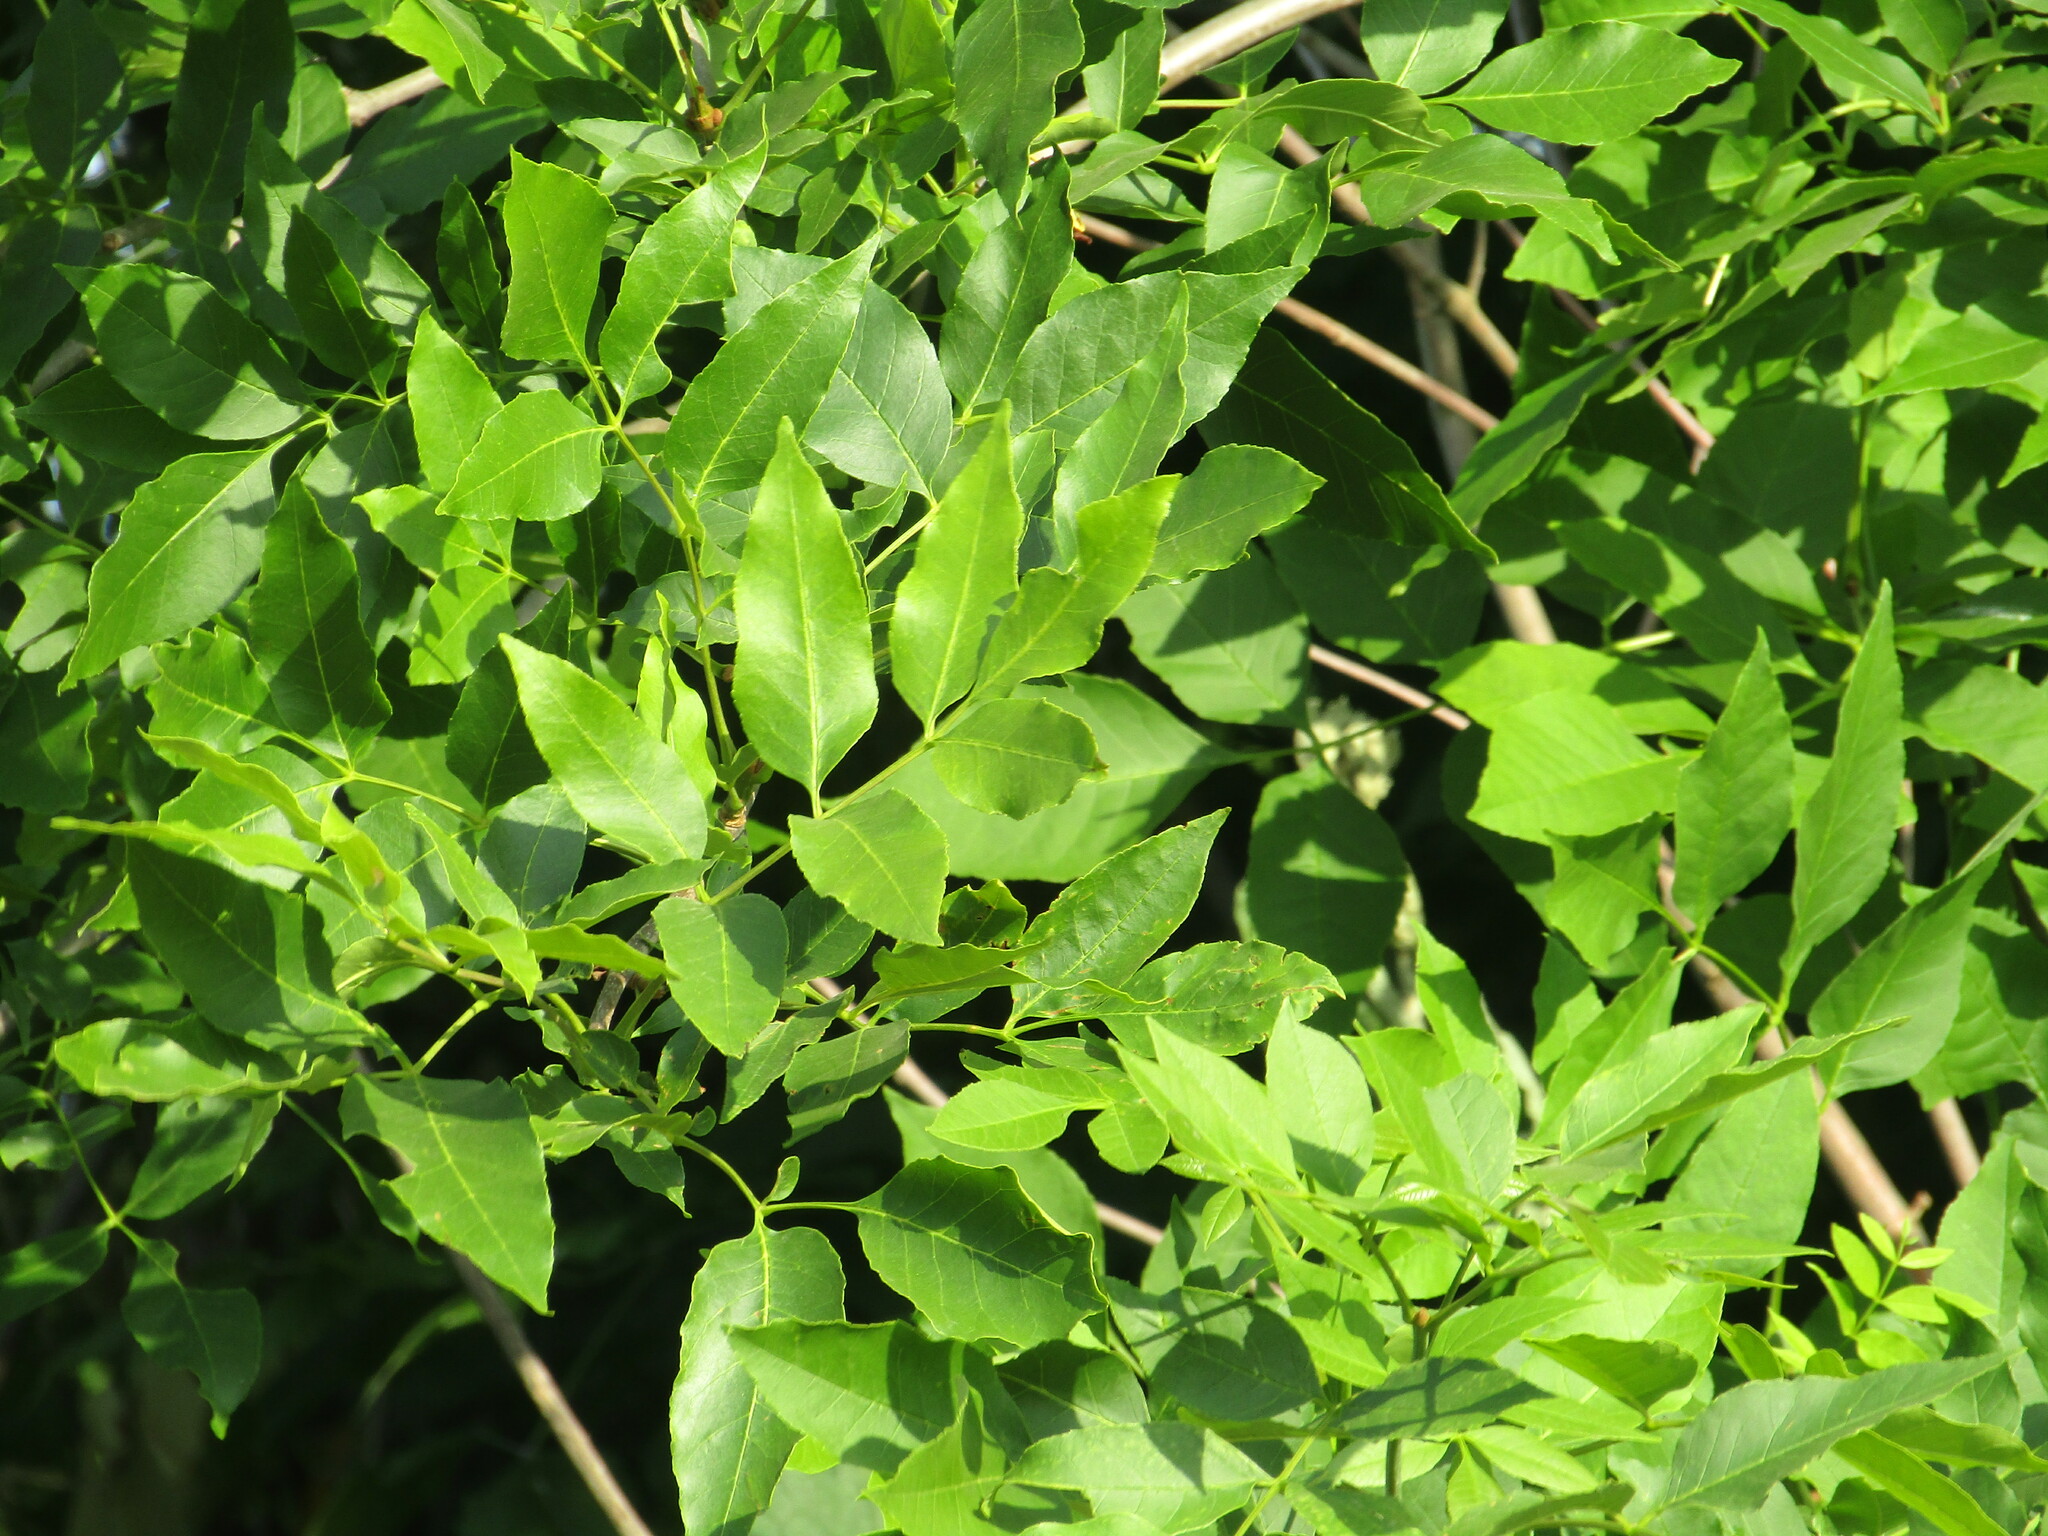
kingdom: Plantae
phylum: Tracheophyta
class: Magnoliopsida
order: Lamiales
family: Oleaceae
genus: Fraxinus
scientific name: Fraxinus pennsylvanica
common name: Green ash
